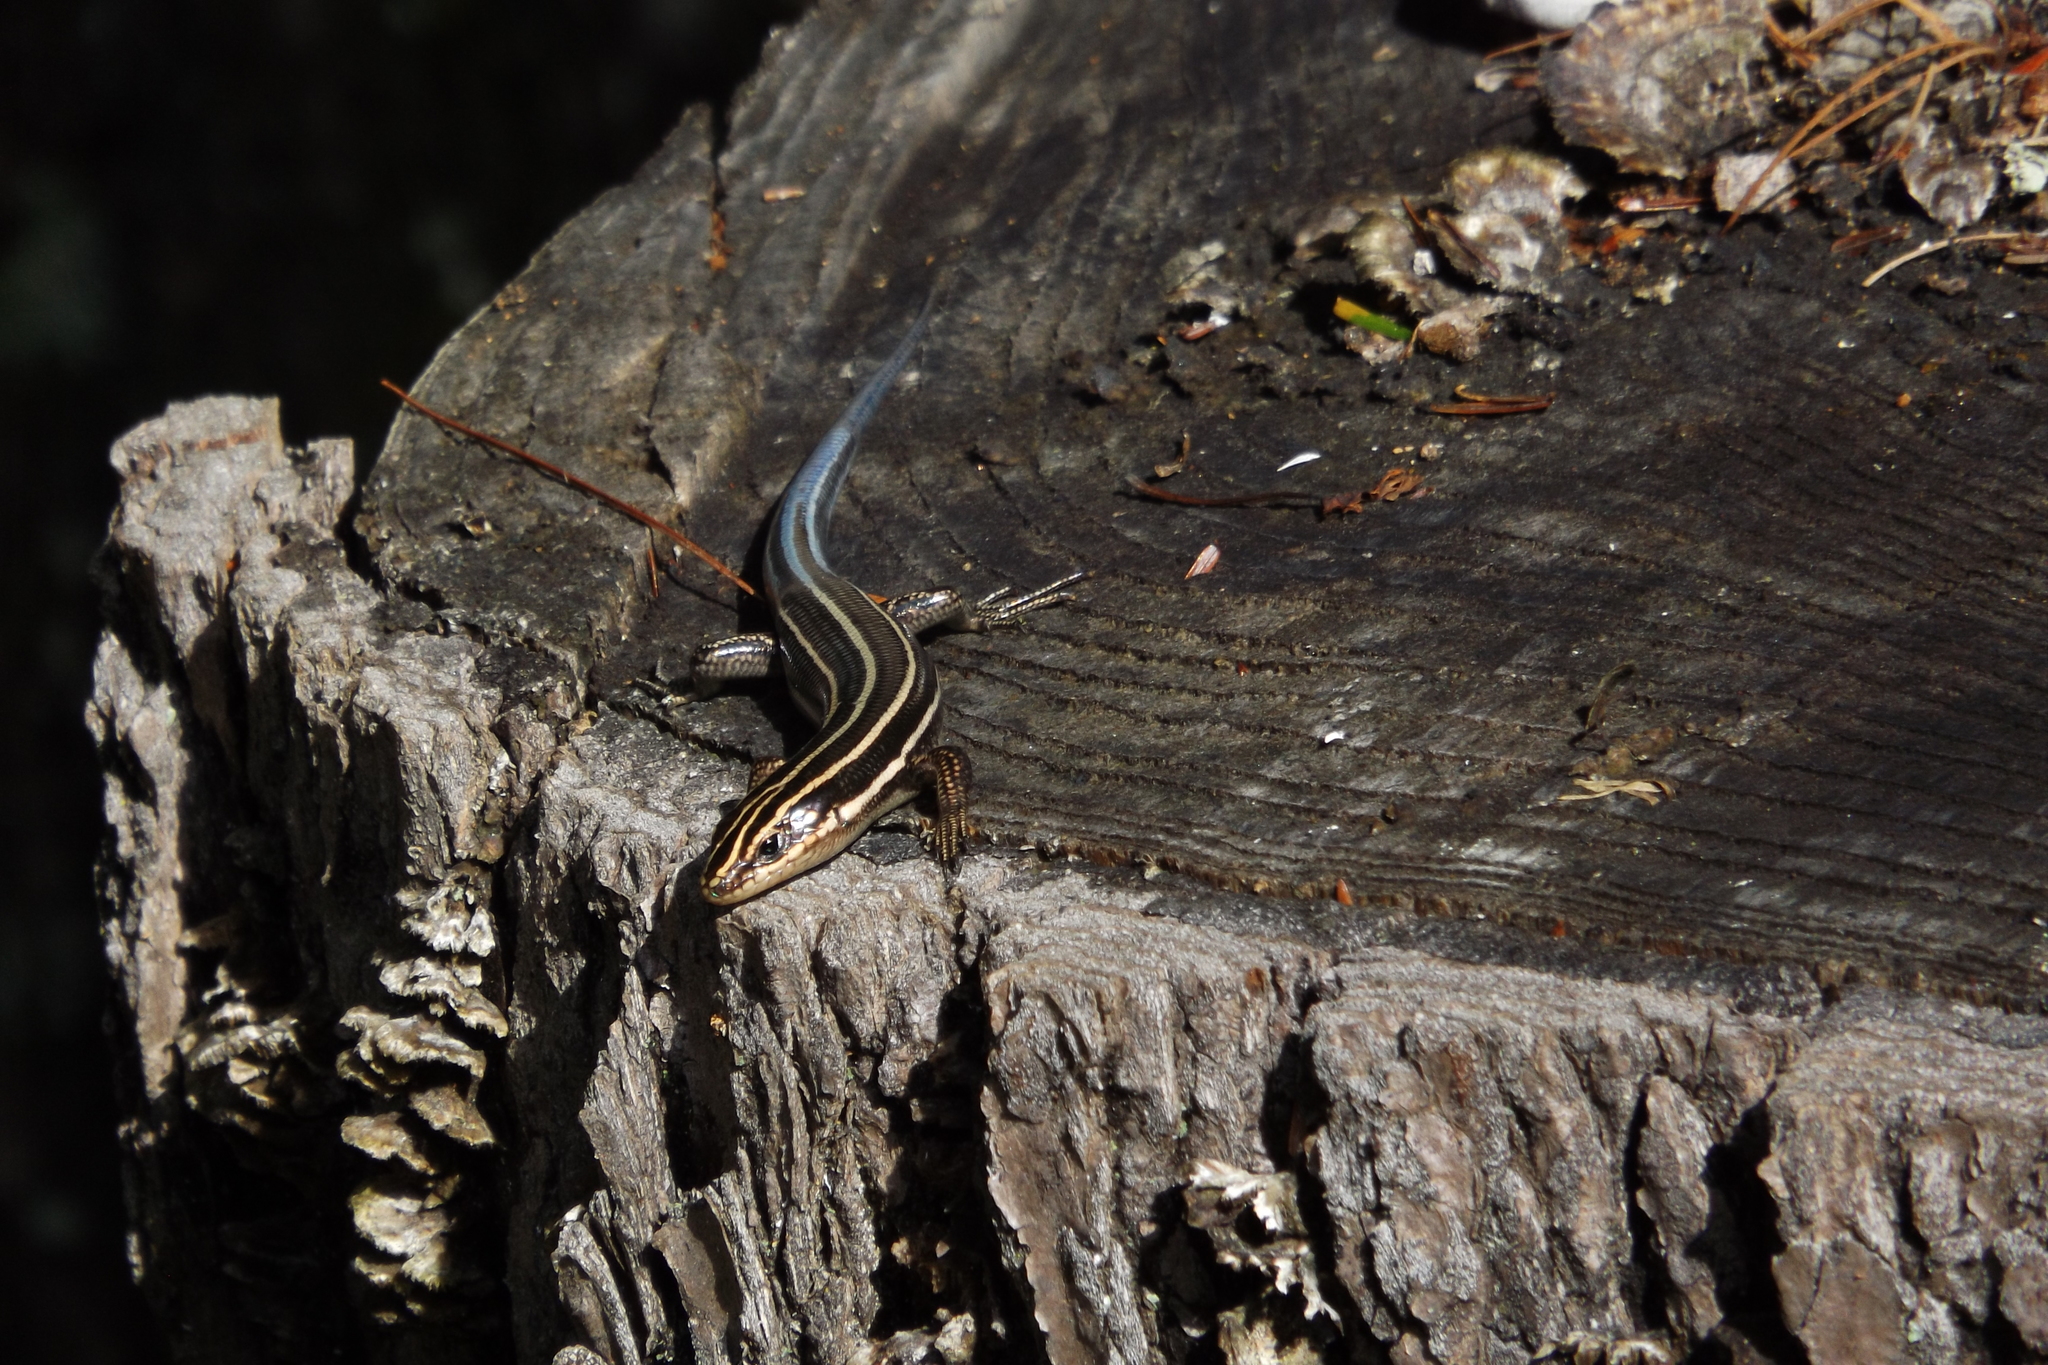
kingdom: Animalia
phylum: Chordata
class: Squamata
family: Scincidae
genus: Plestiodon
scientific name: Plestiodon fasciatus
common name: Five-lined skink
